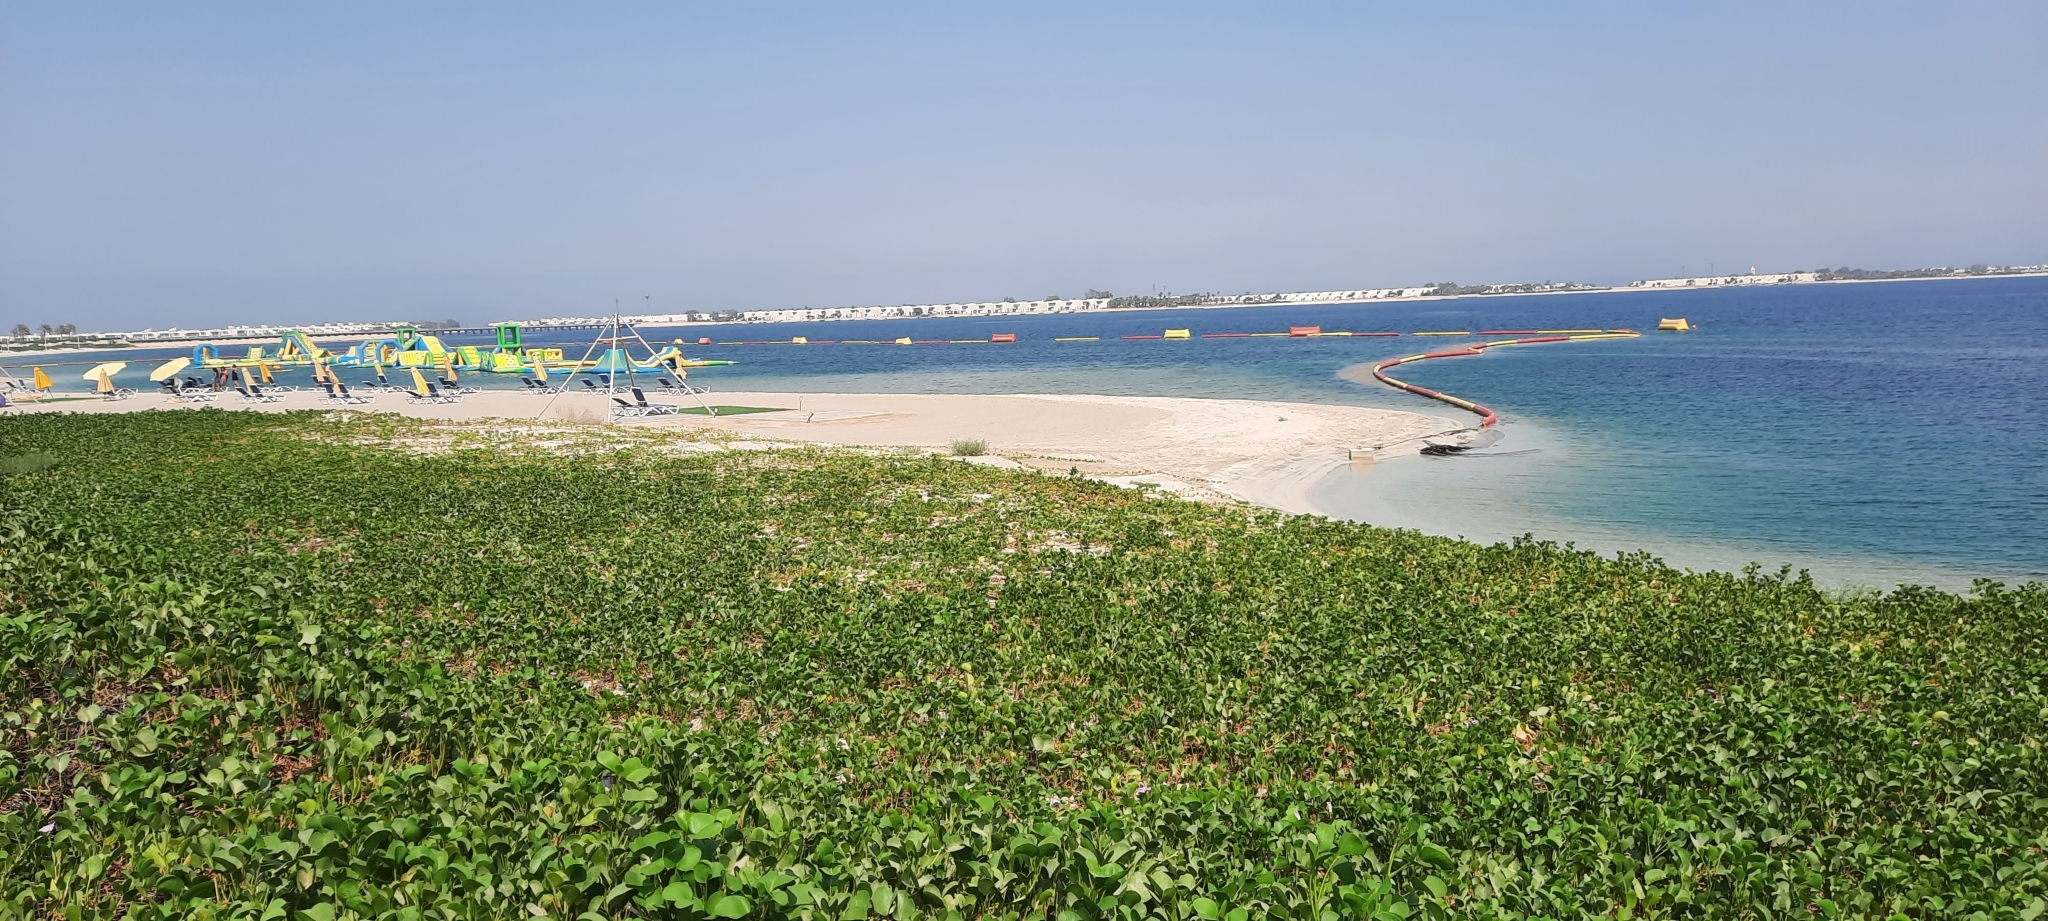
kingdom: Plantae
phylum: Tracheophyta
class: Magnoliopsida
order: Solanales
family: Convolvulaceae
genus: Ipomoea
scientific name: Ipomoea pes-caprae
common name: Beach morning glory
